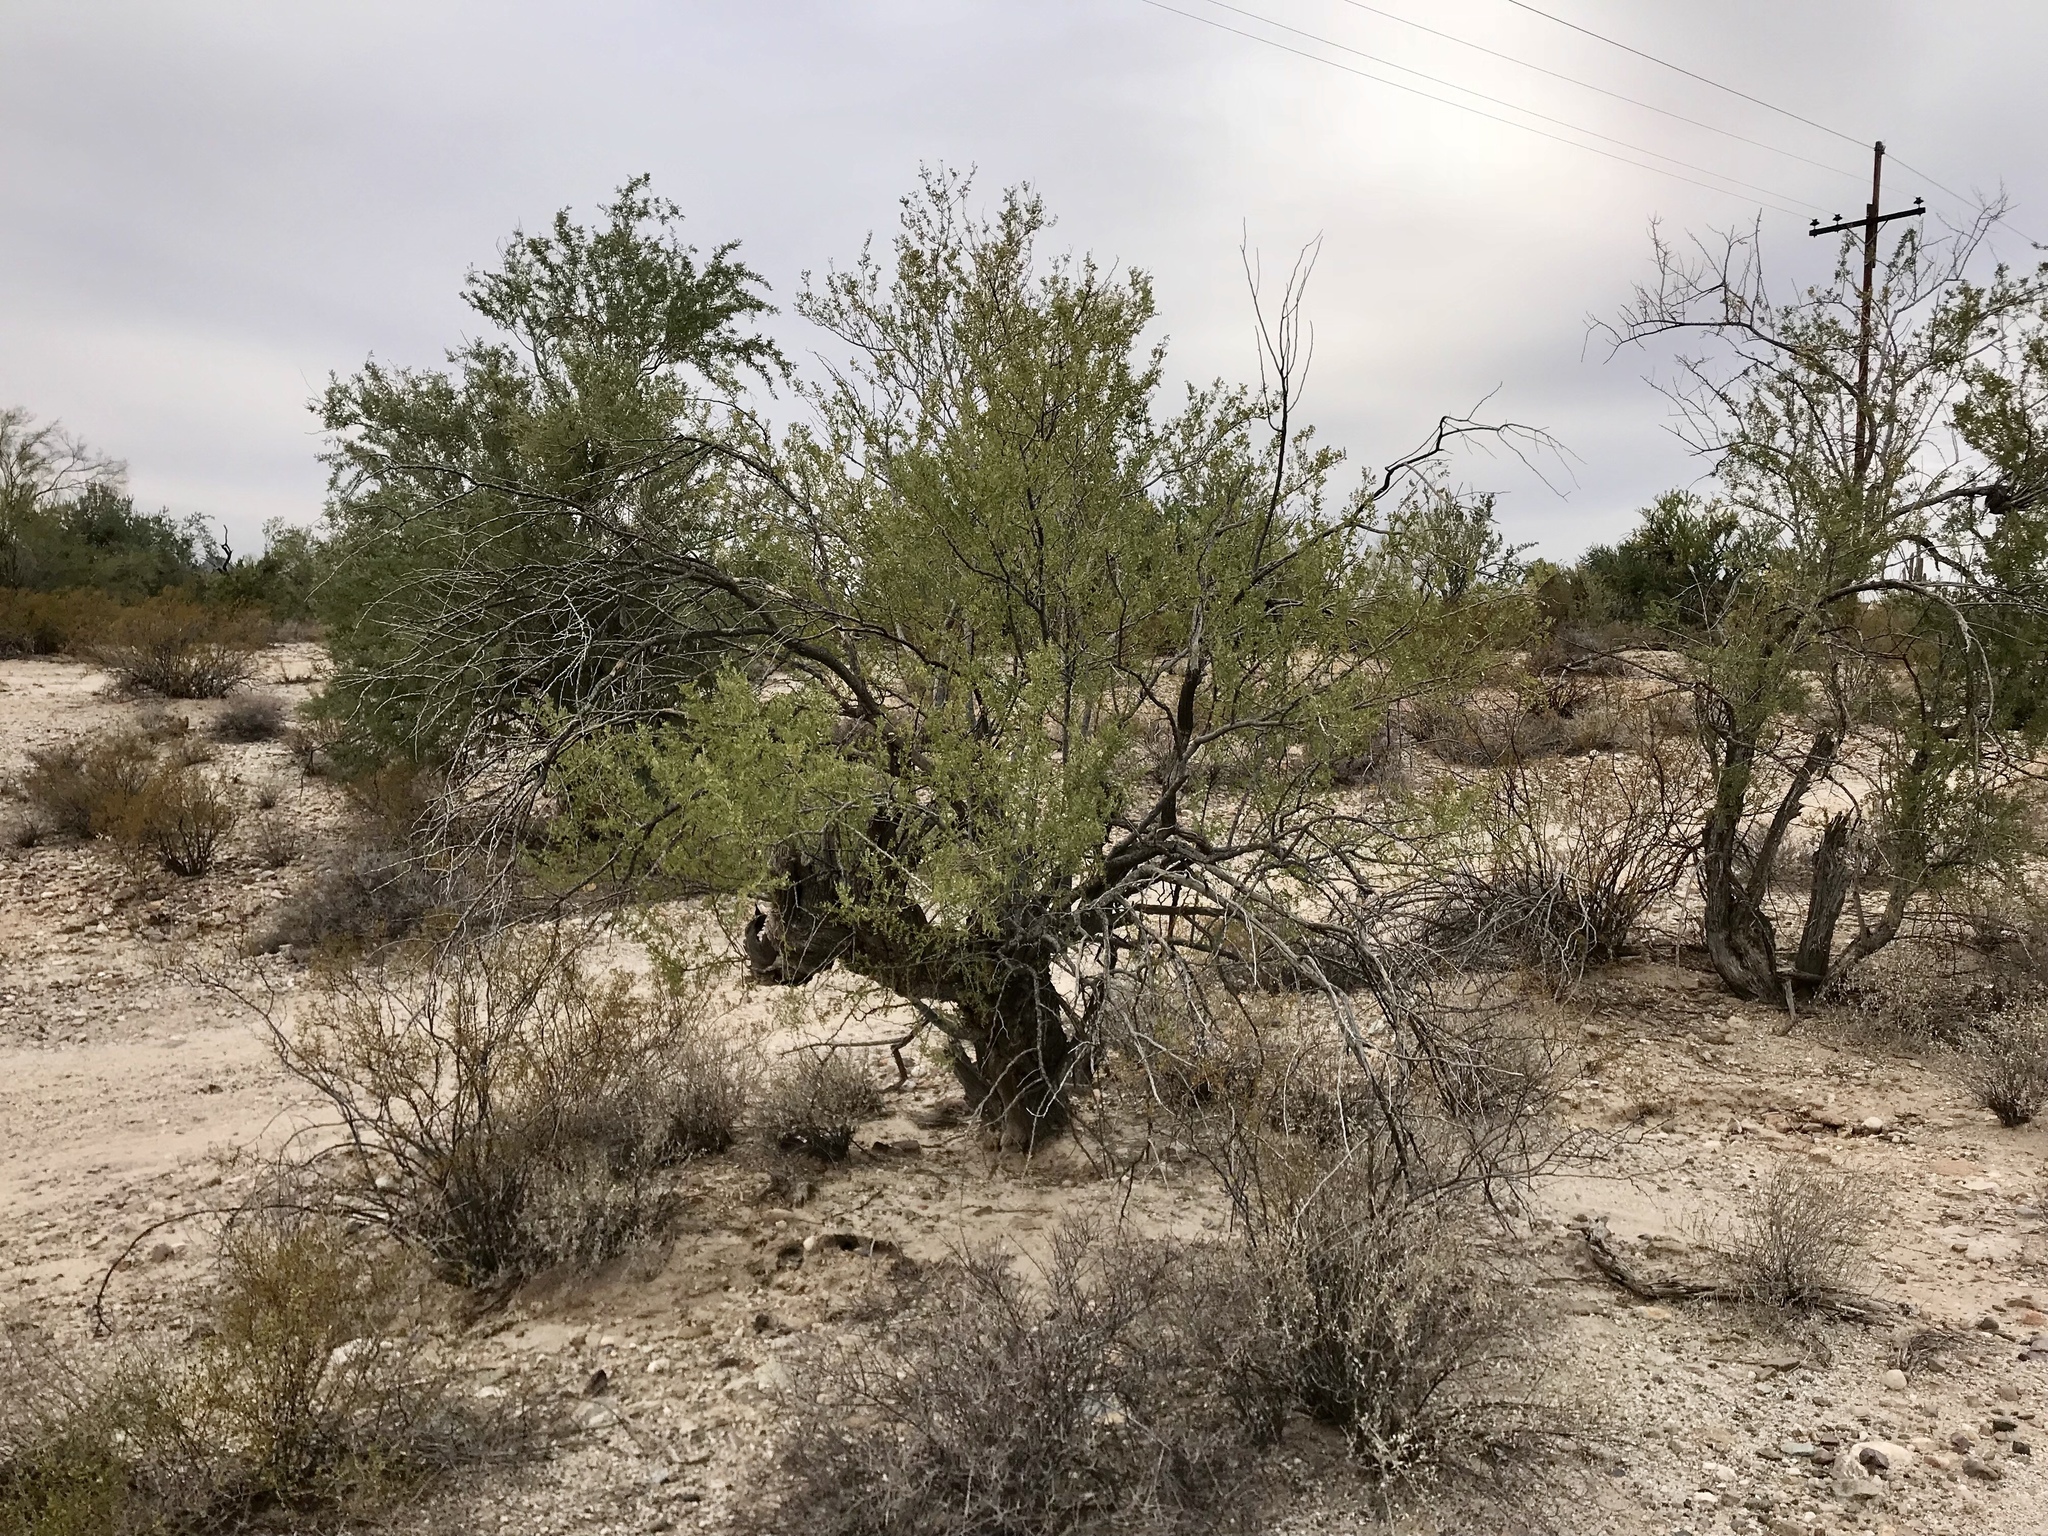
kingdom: Plantae
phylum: Tracheophyta
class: Magnoliopsida
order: Fabales
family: Fabaceae
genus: Olneya
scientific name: Olneya tesota
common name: Desert ironwood
